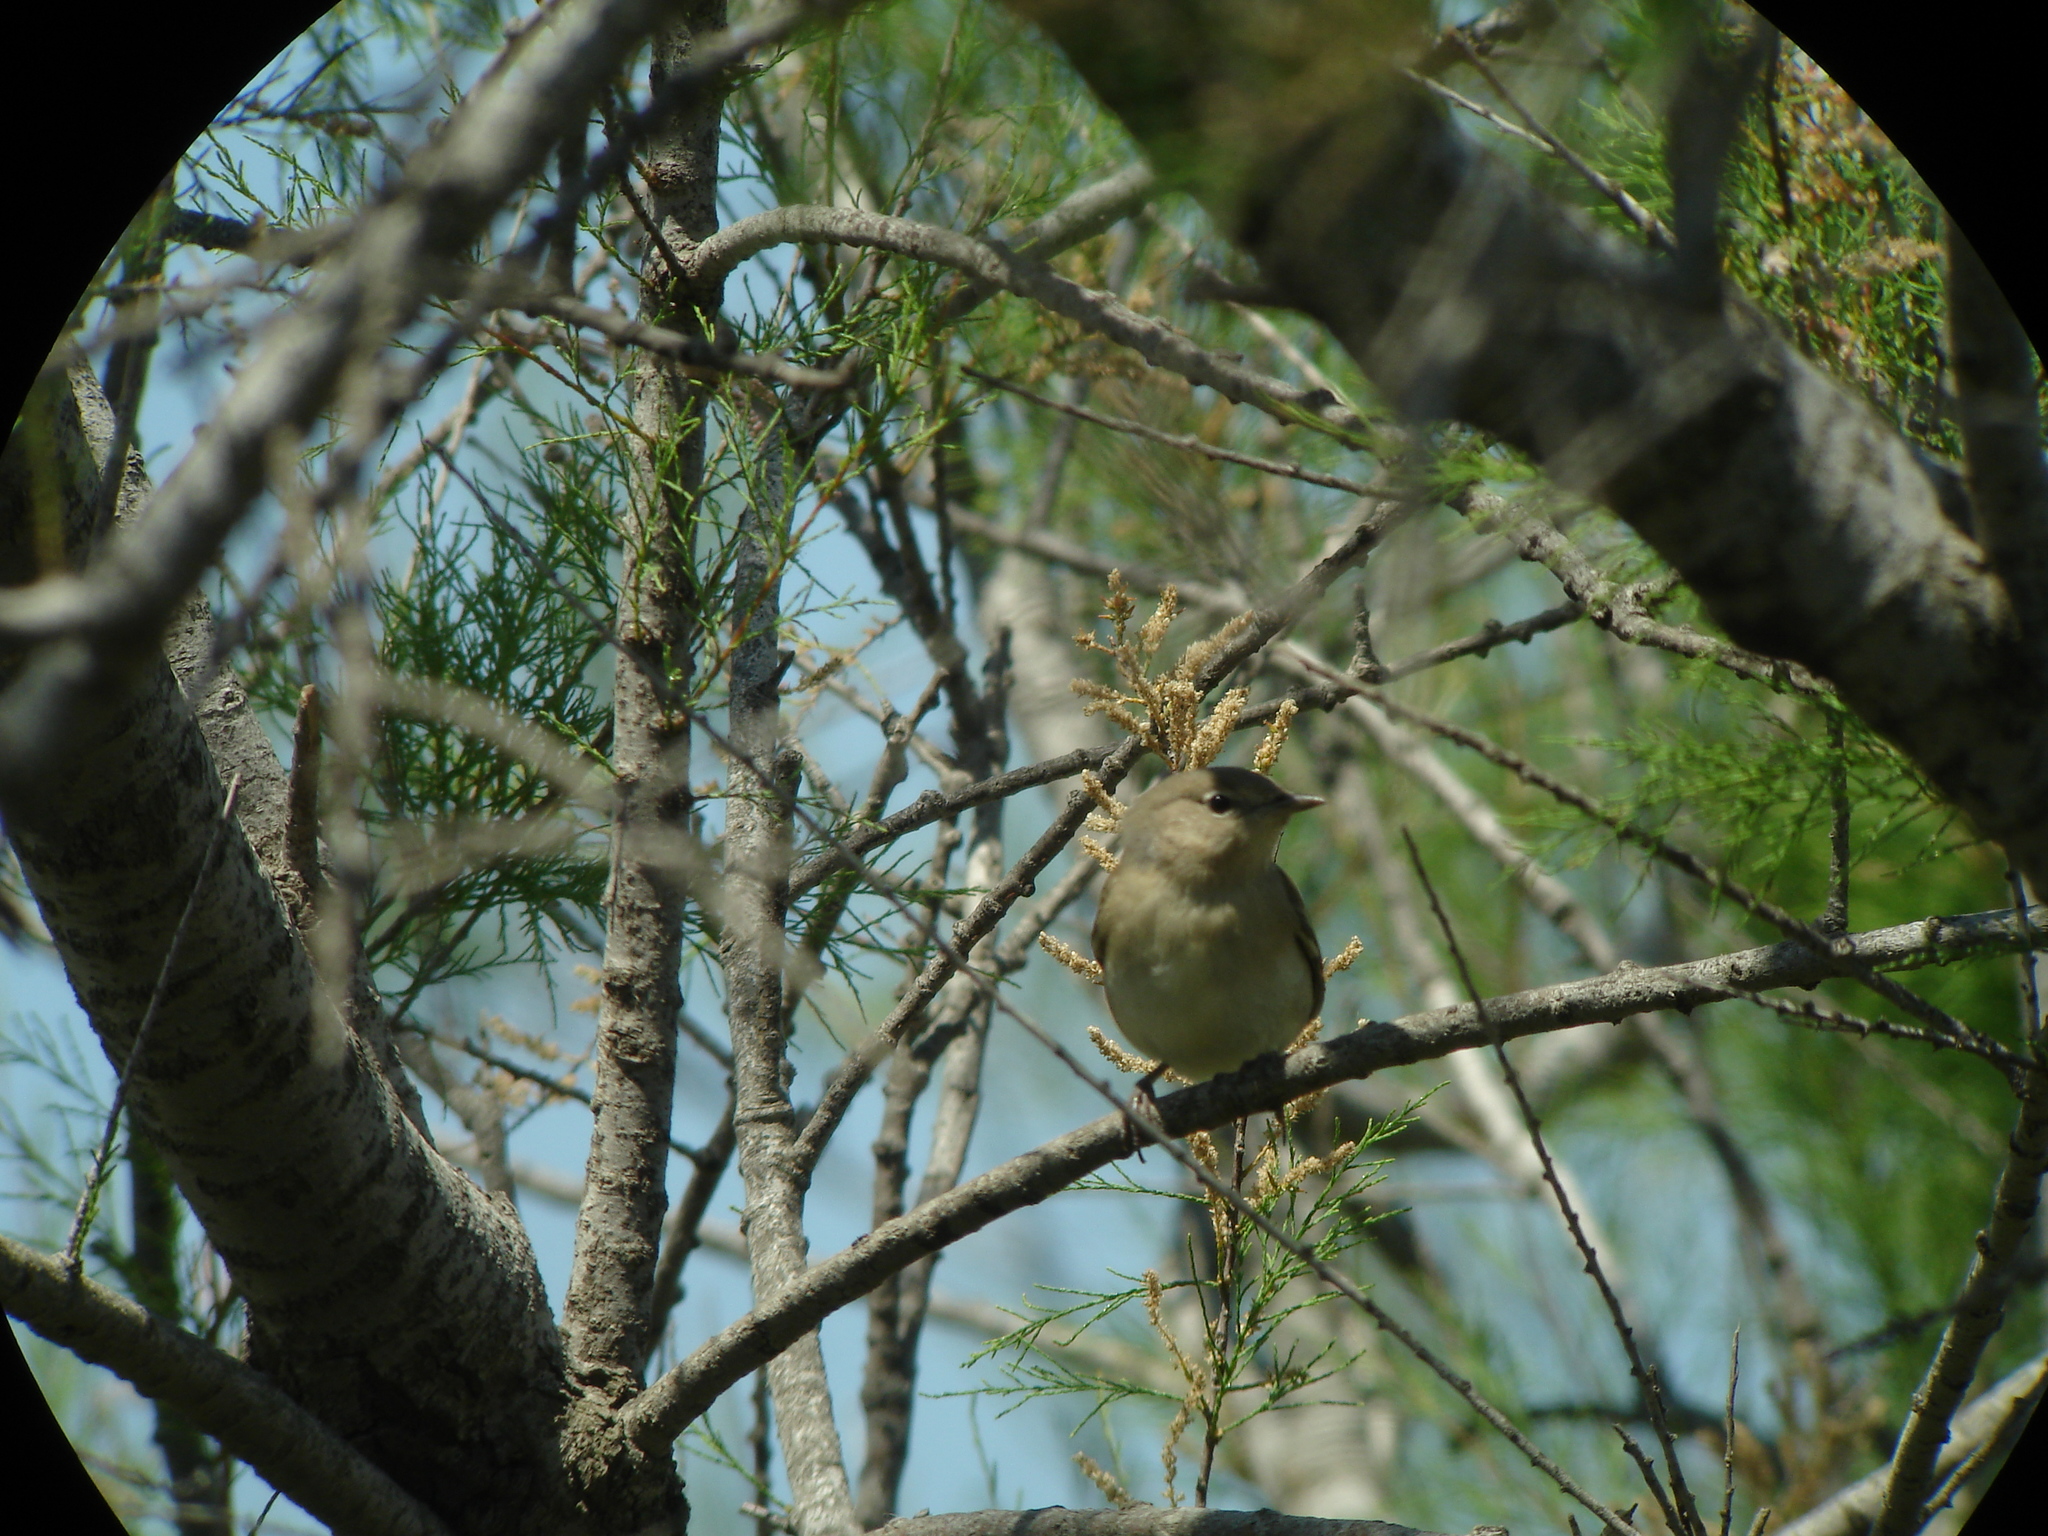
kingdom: Animalia
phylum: Chordata
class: Aves
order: Passeriformes
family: Sylviidae
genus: Sylvia
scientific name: Sylvia borin
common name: Garden warbler
